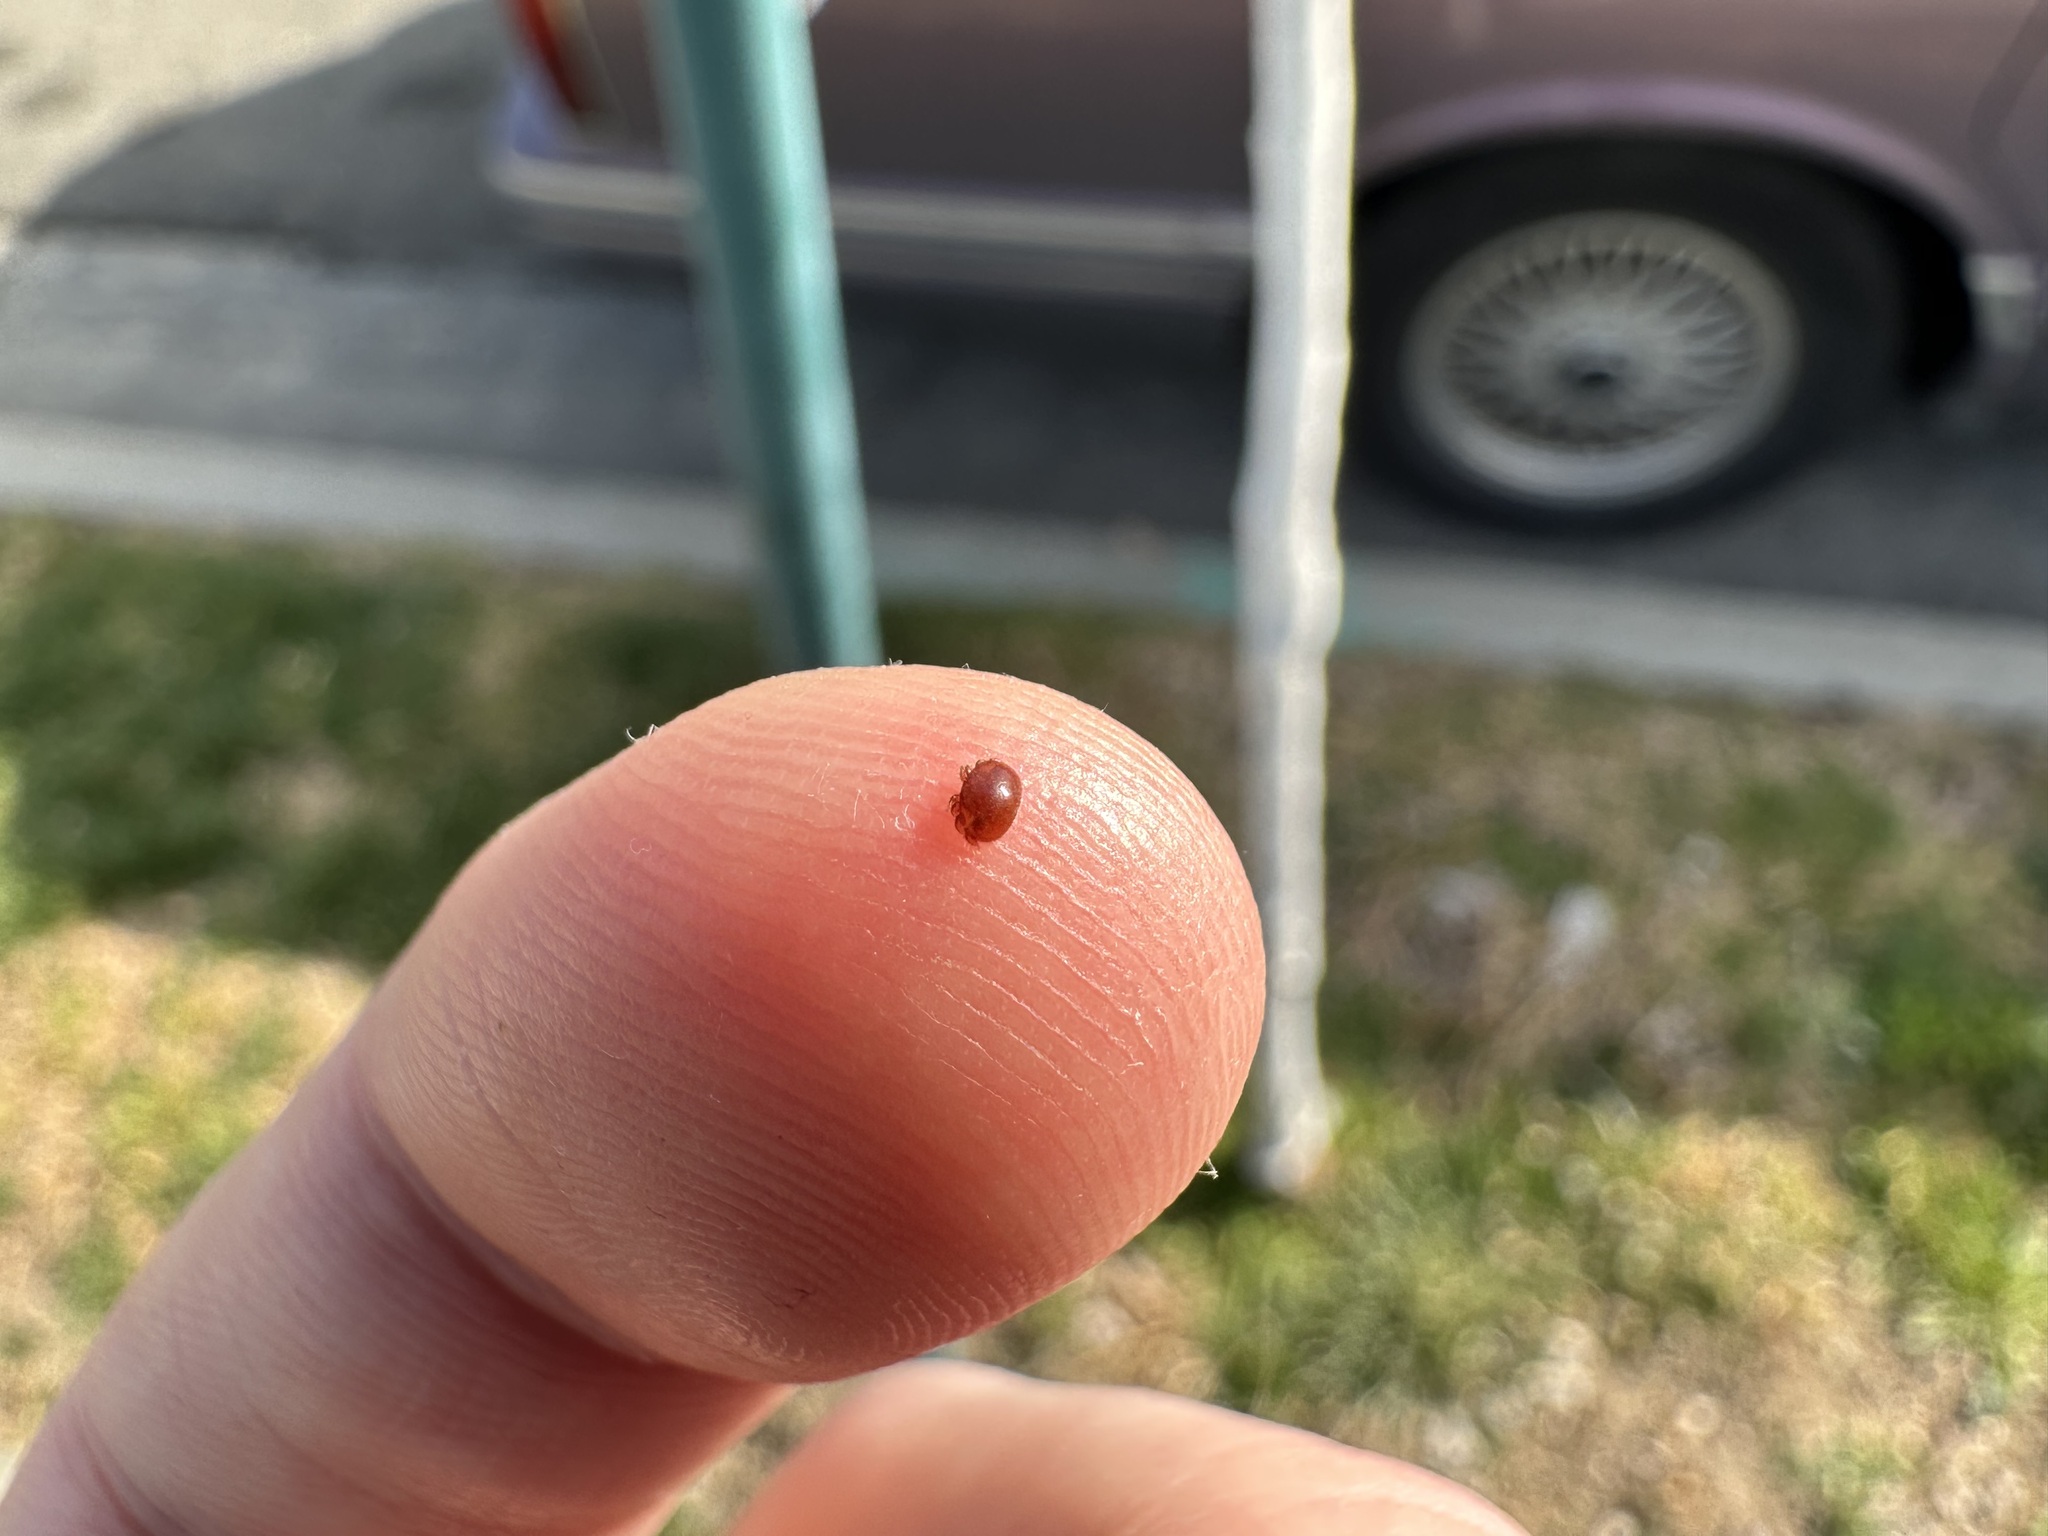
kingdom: Animalia
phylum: Arthropoda
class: Arachnida
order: Mesostigmata
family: Varroidae
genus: Varroa
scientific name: Varroa destructor
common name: Honey bee mite
